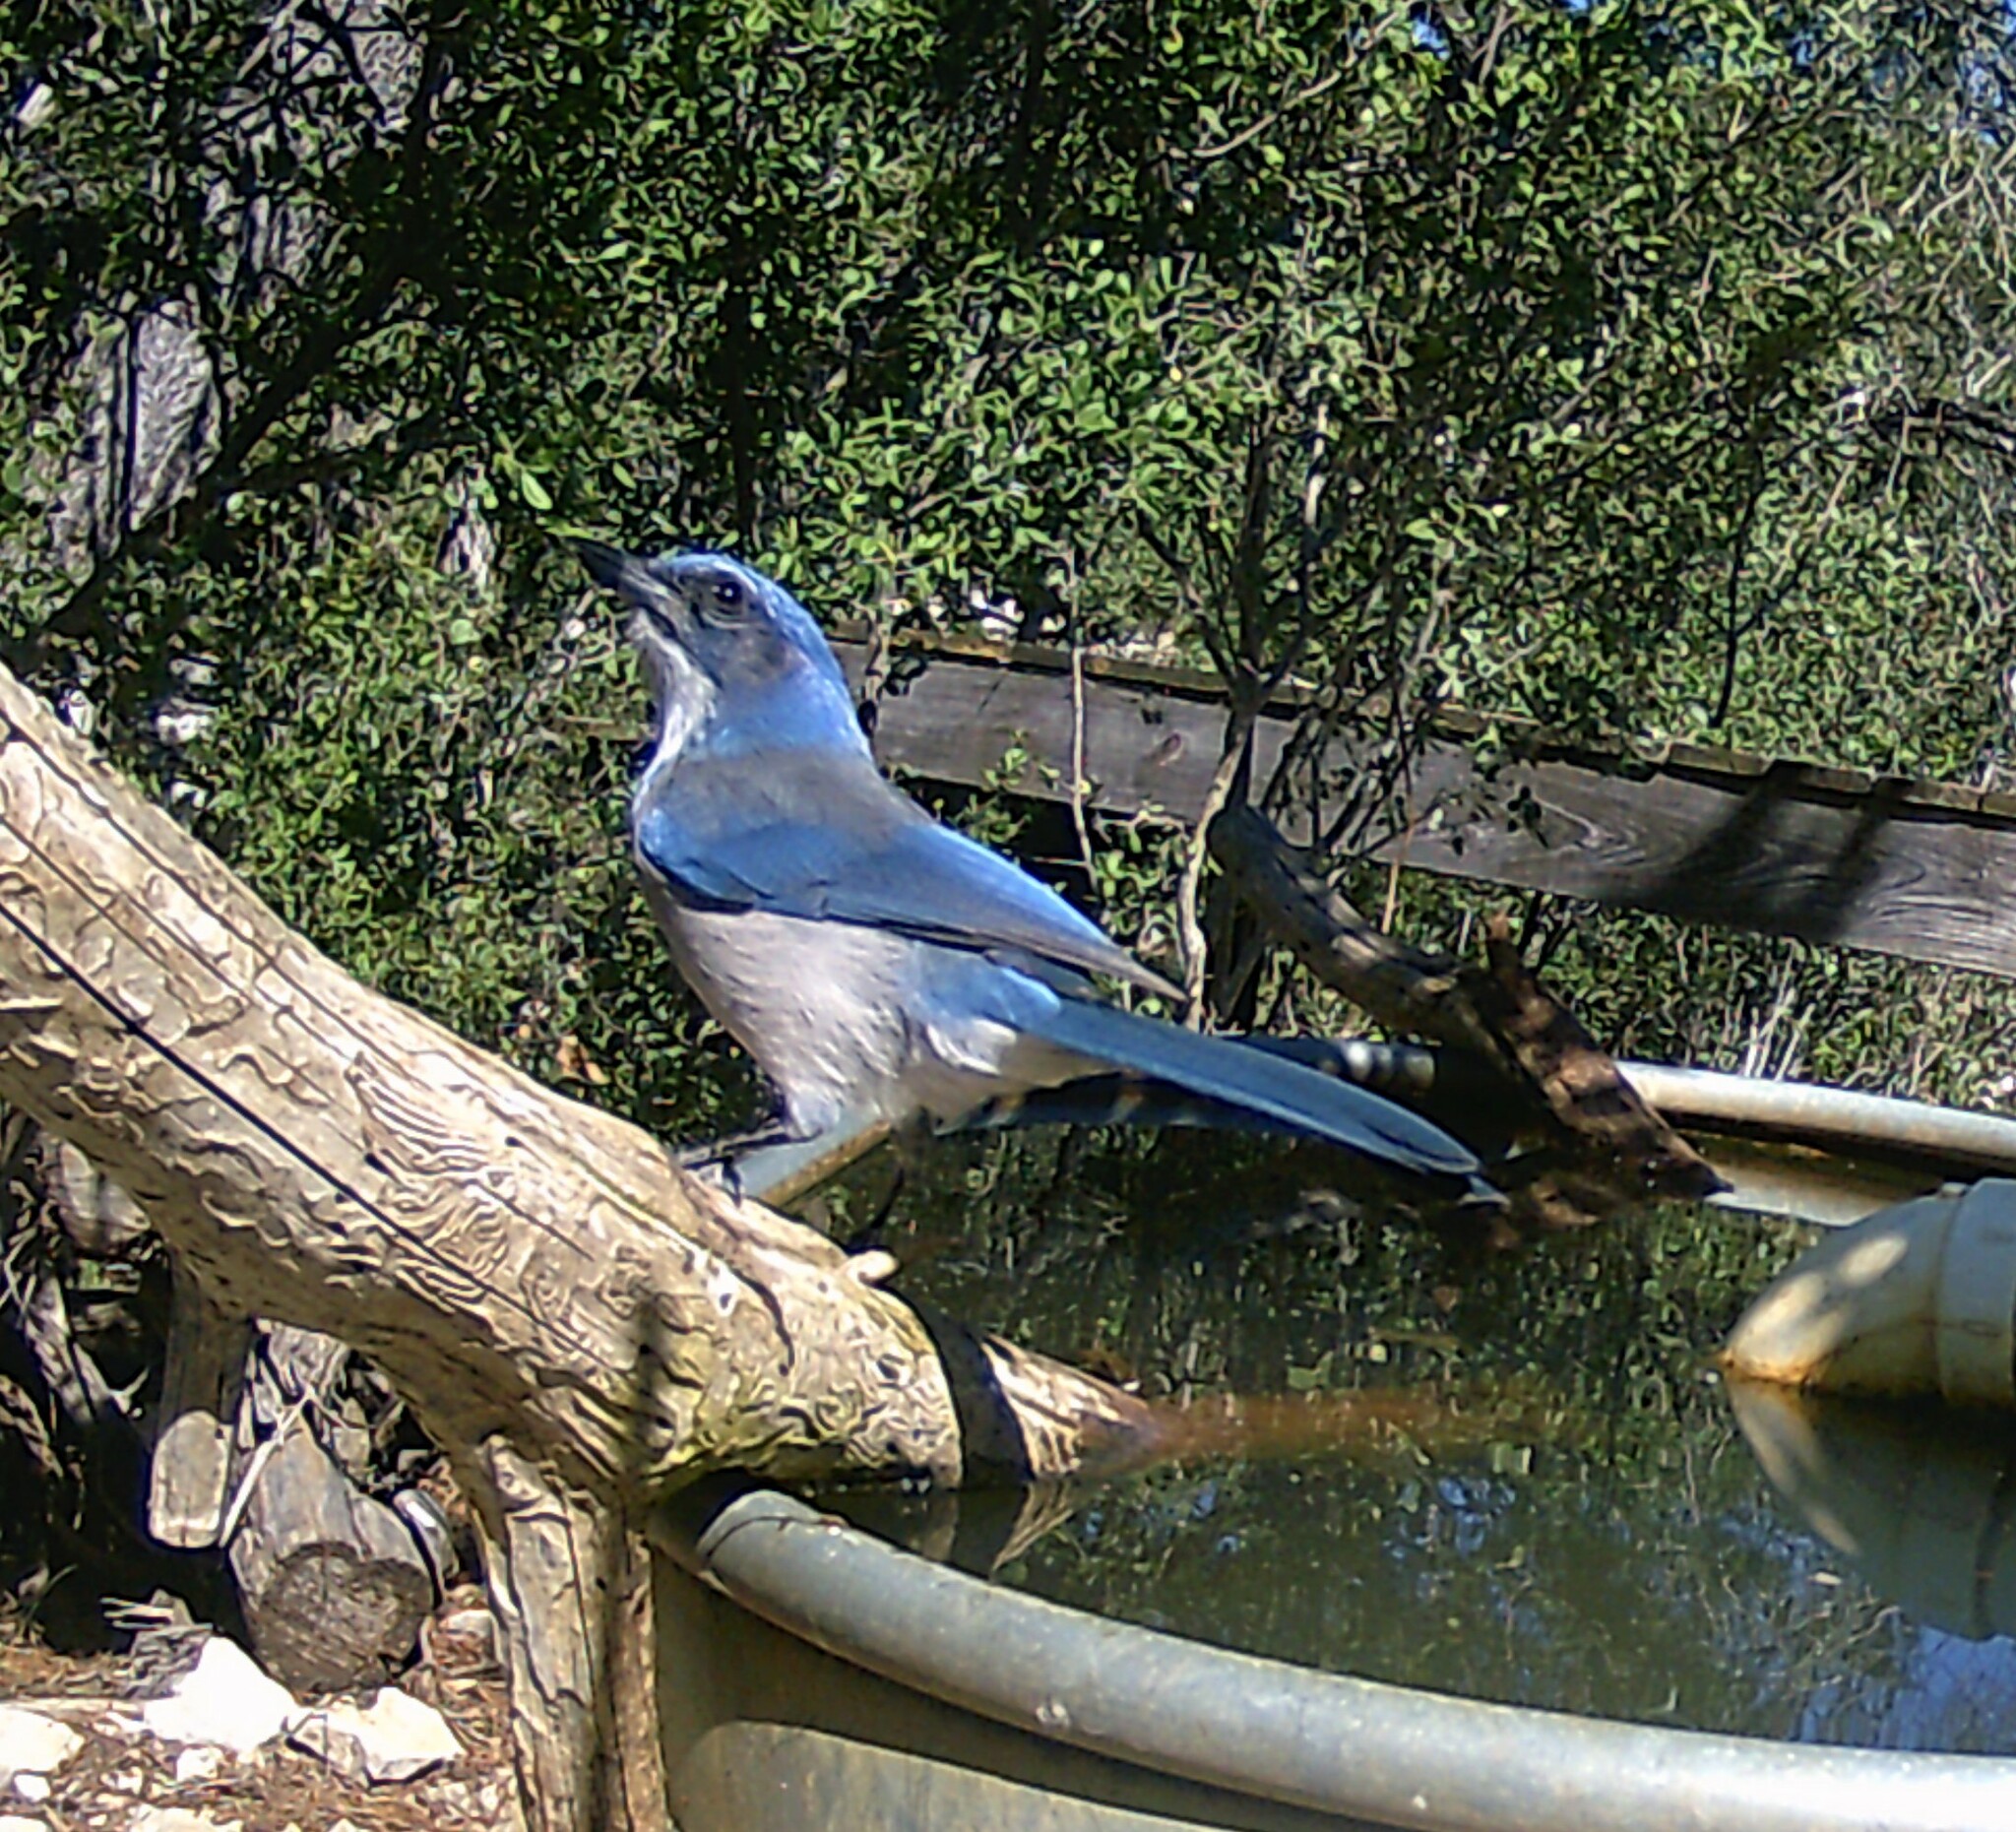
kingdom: Animalia
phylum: Chordata
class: Aves
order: Passeriformes
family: Corvidae
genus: Aphelocoma
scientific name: Aphelocoma woodhouseii
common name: Woodhouse's scrub-jay
